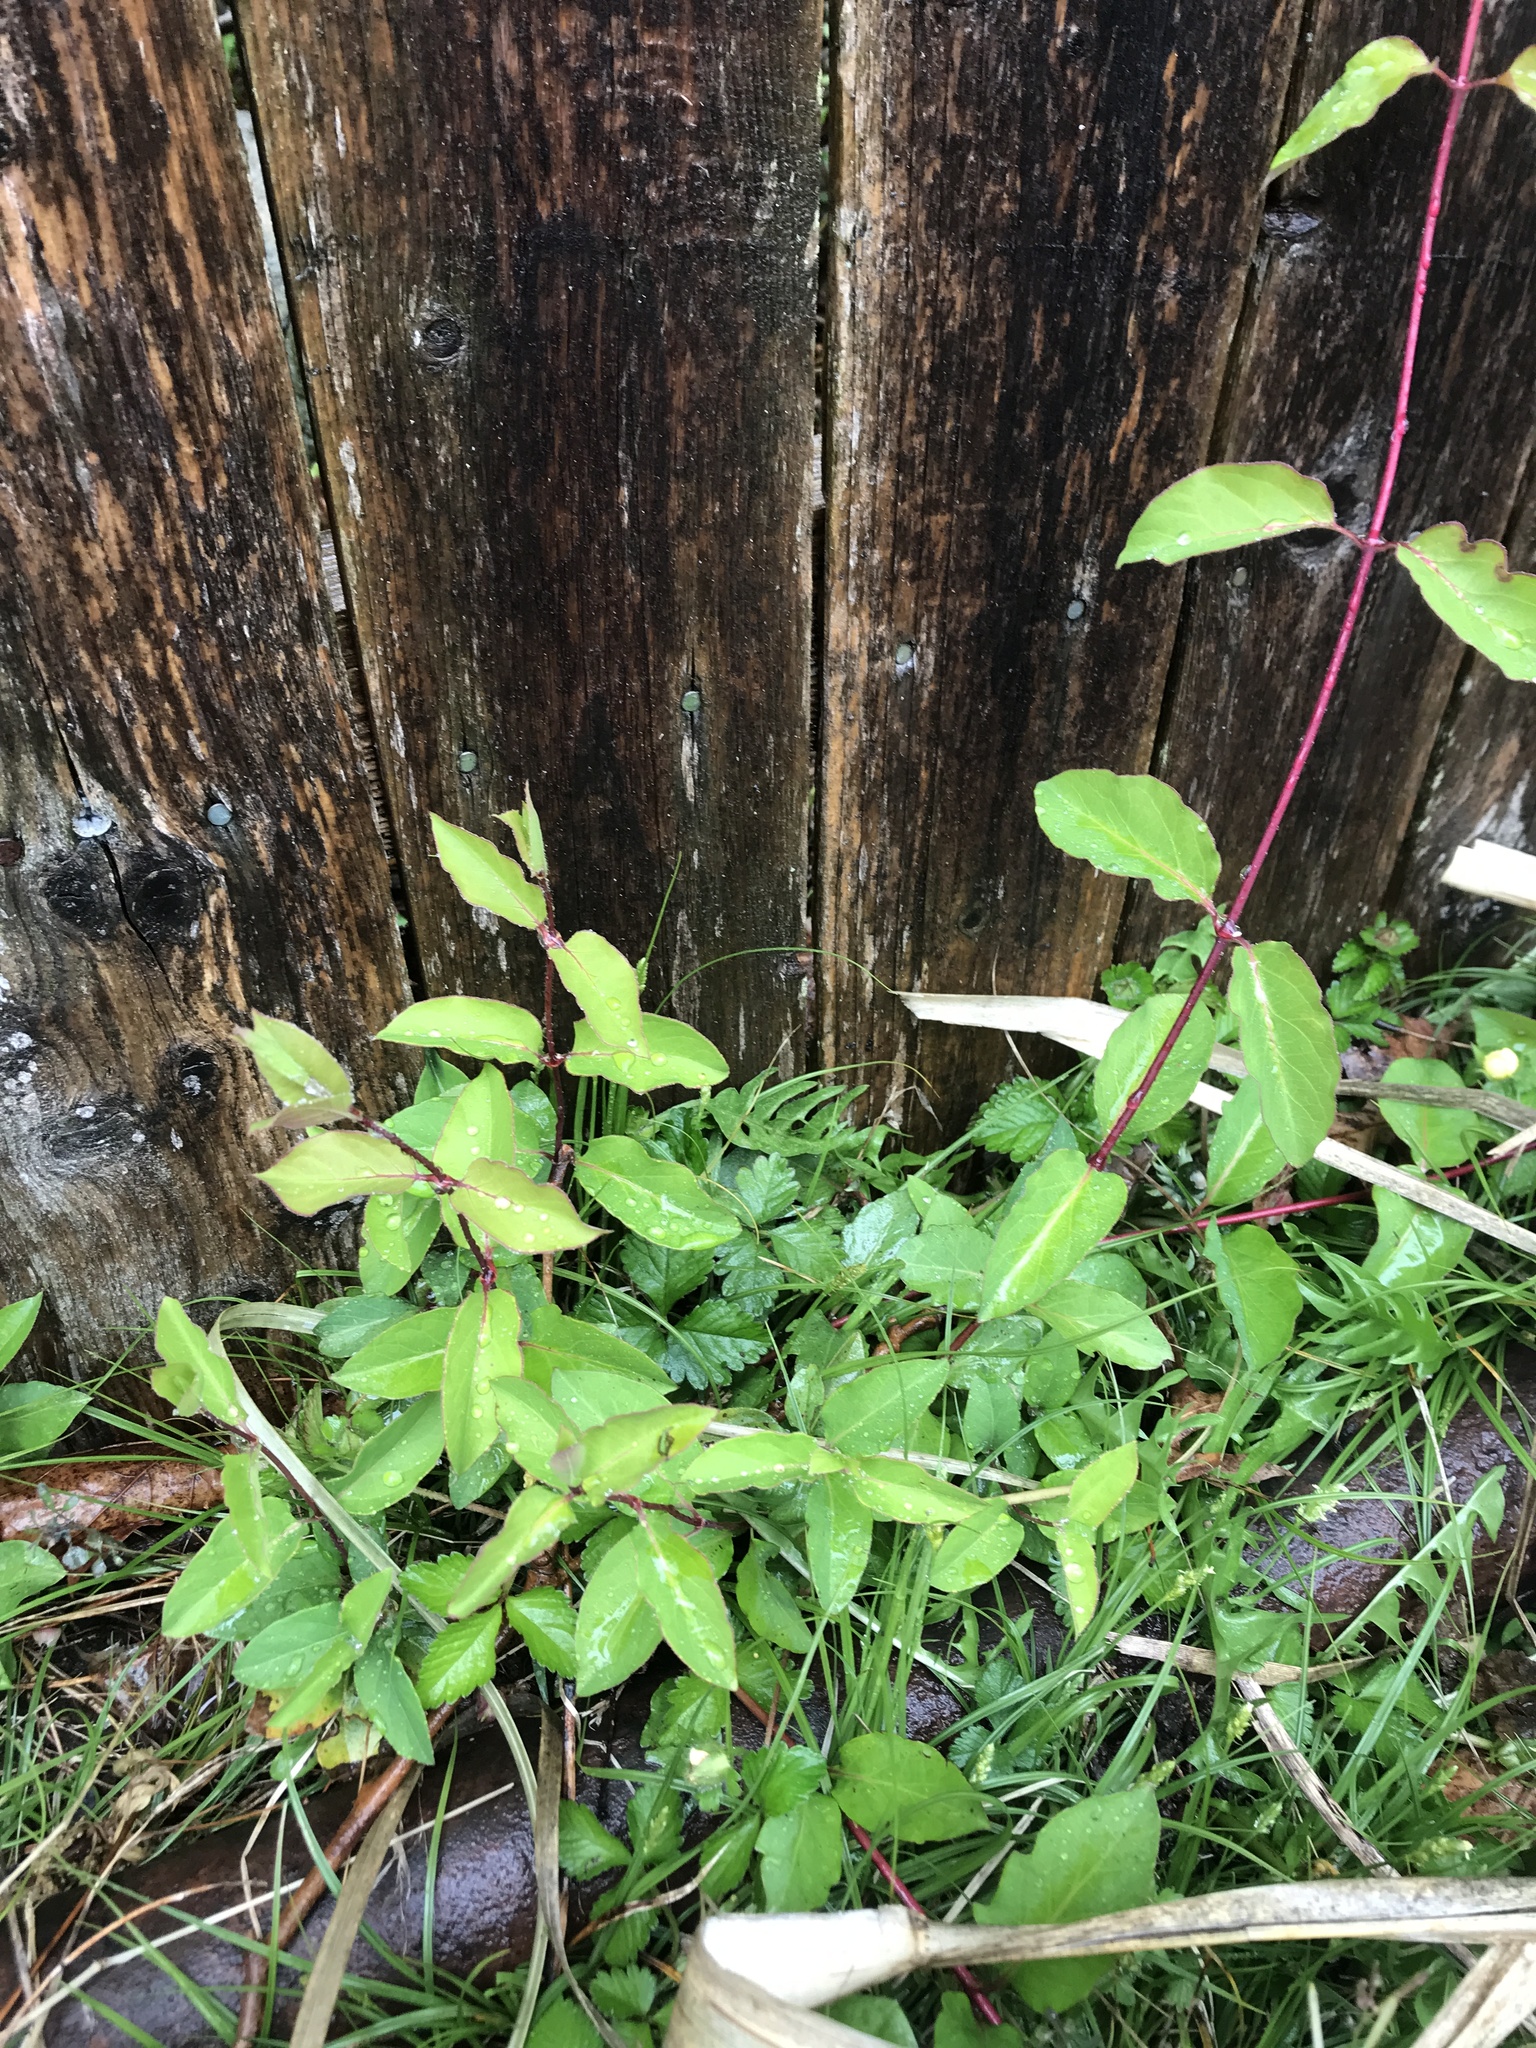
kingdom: Plantae
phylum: Tracheophyta
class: Magnoliopsida
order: Dipsacales
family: Caprifoliaceae
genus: Lonicera
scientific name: Lonicera japonica
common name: Japanese honeysuckle
